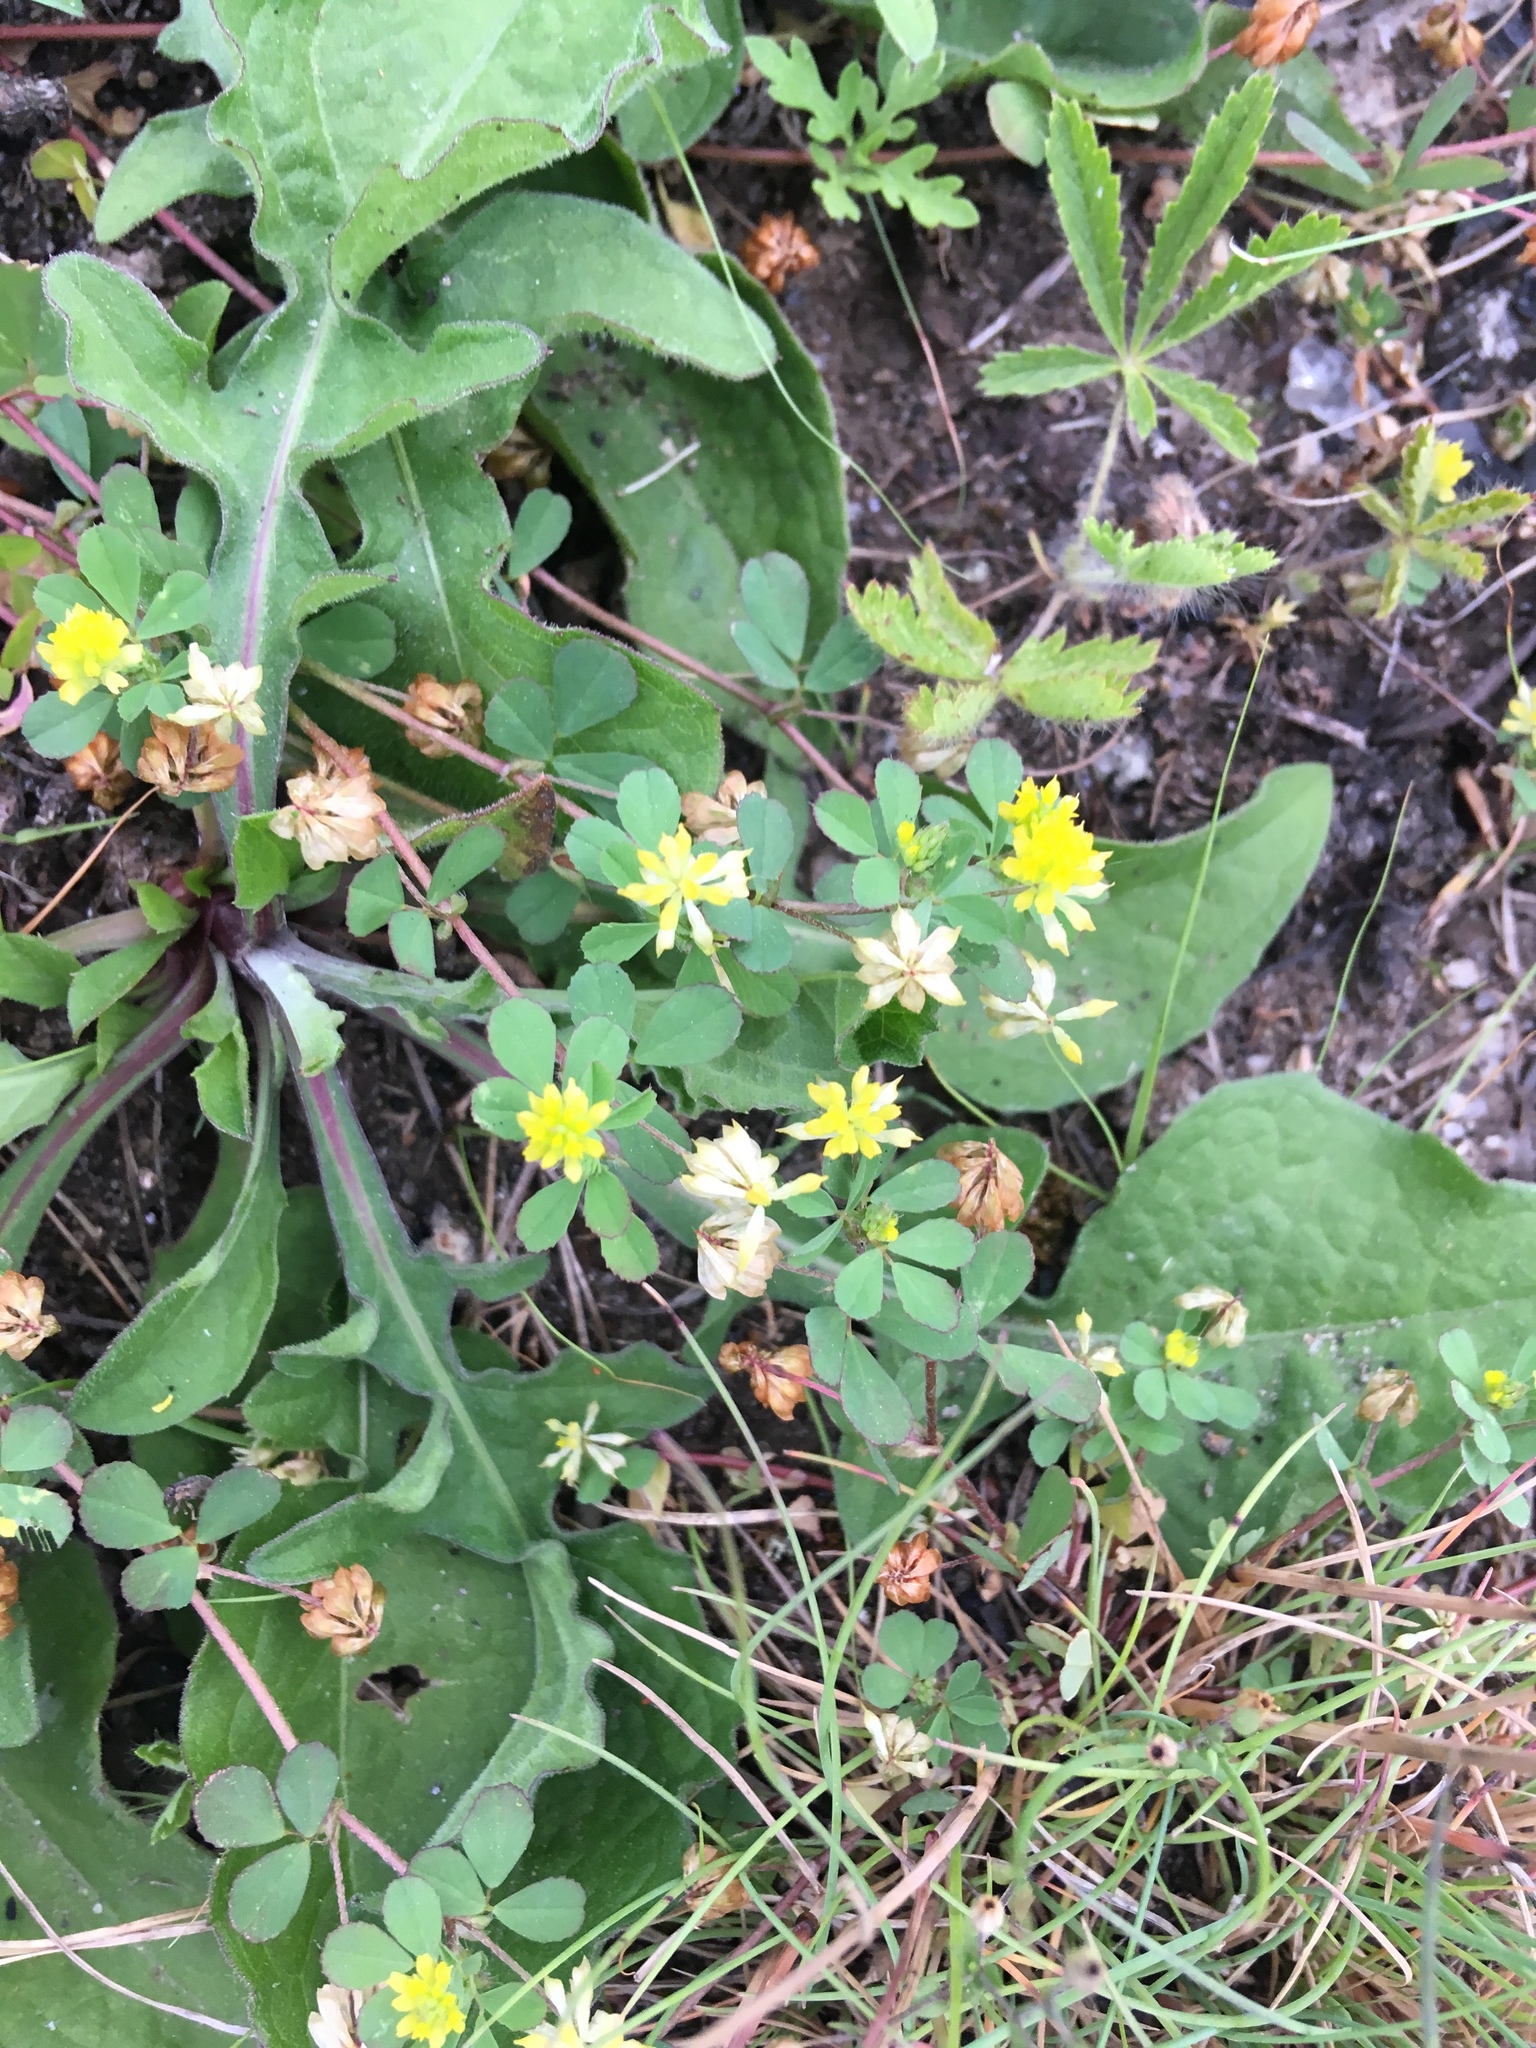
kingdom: Plantae
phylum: Tracheophyta
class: Magnoliopsida
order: Fabales
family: Fabaceae
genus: Medicago
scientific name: Medicago lupulina
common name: Black medick
